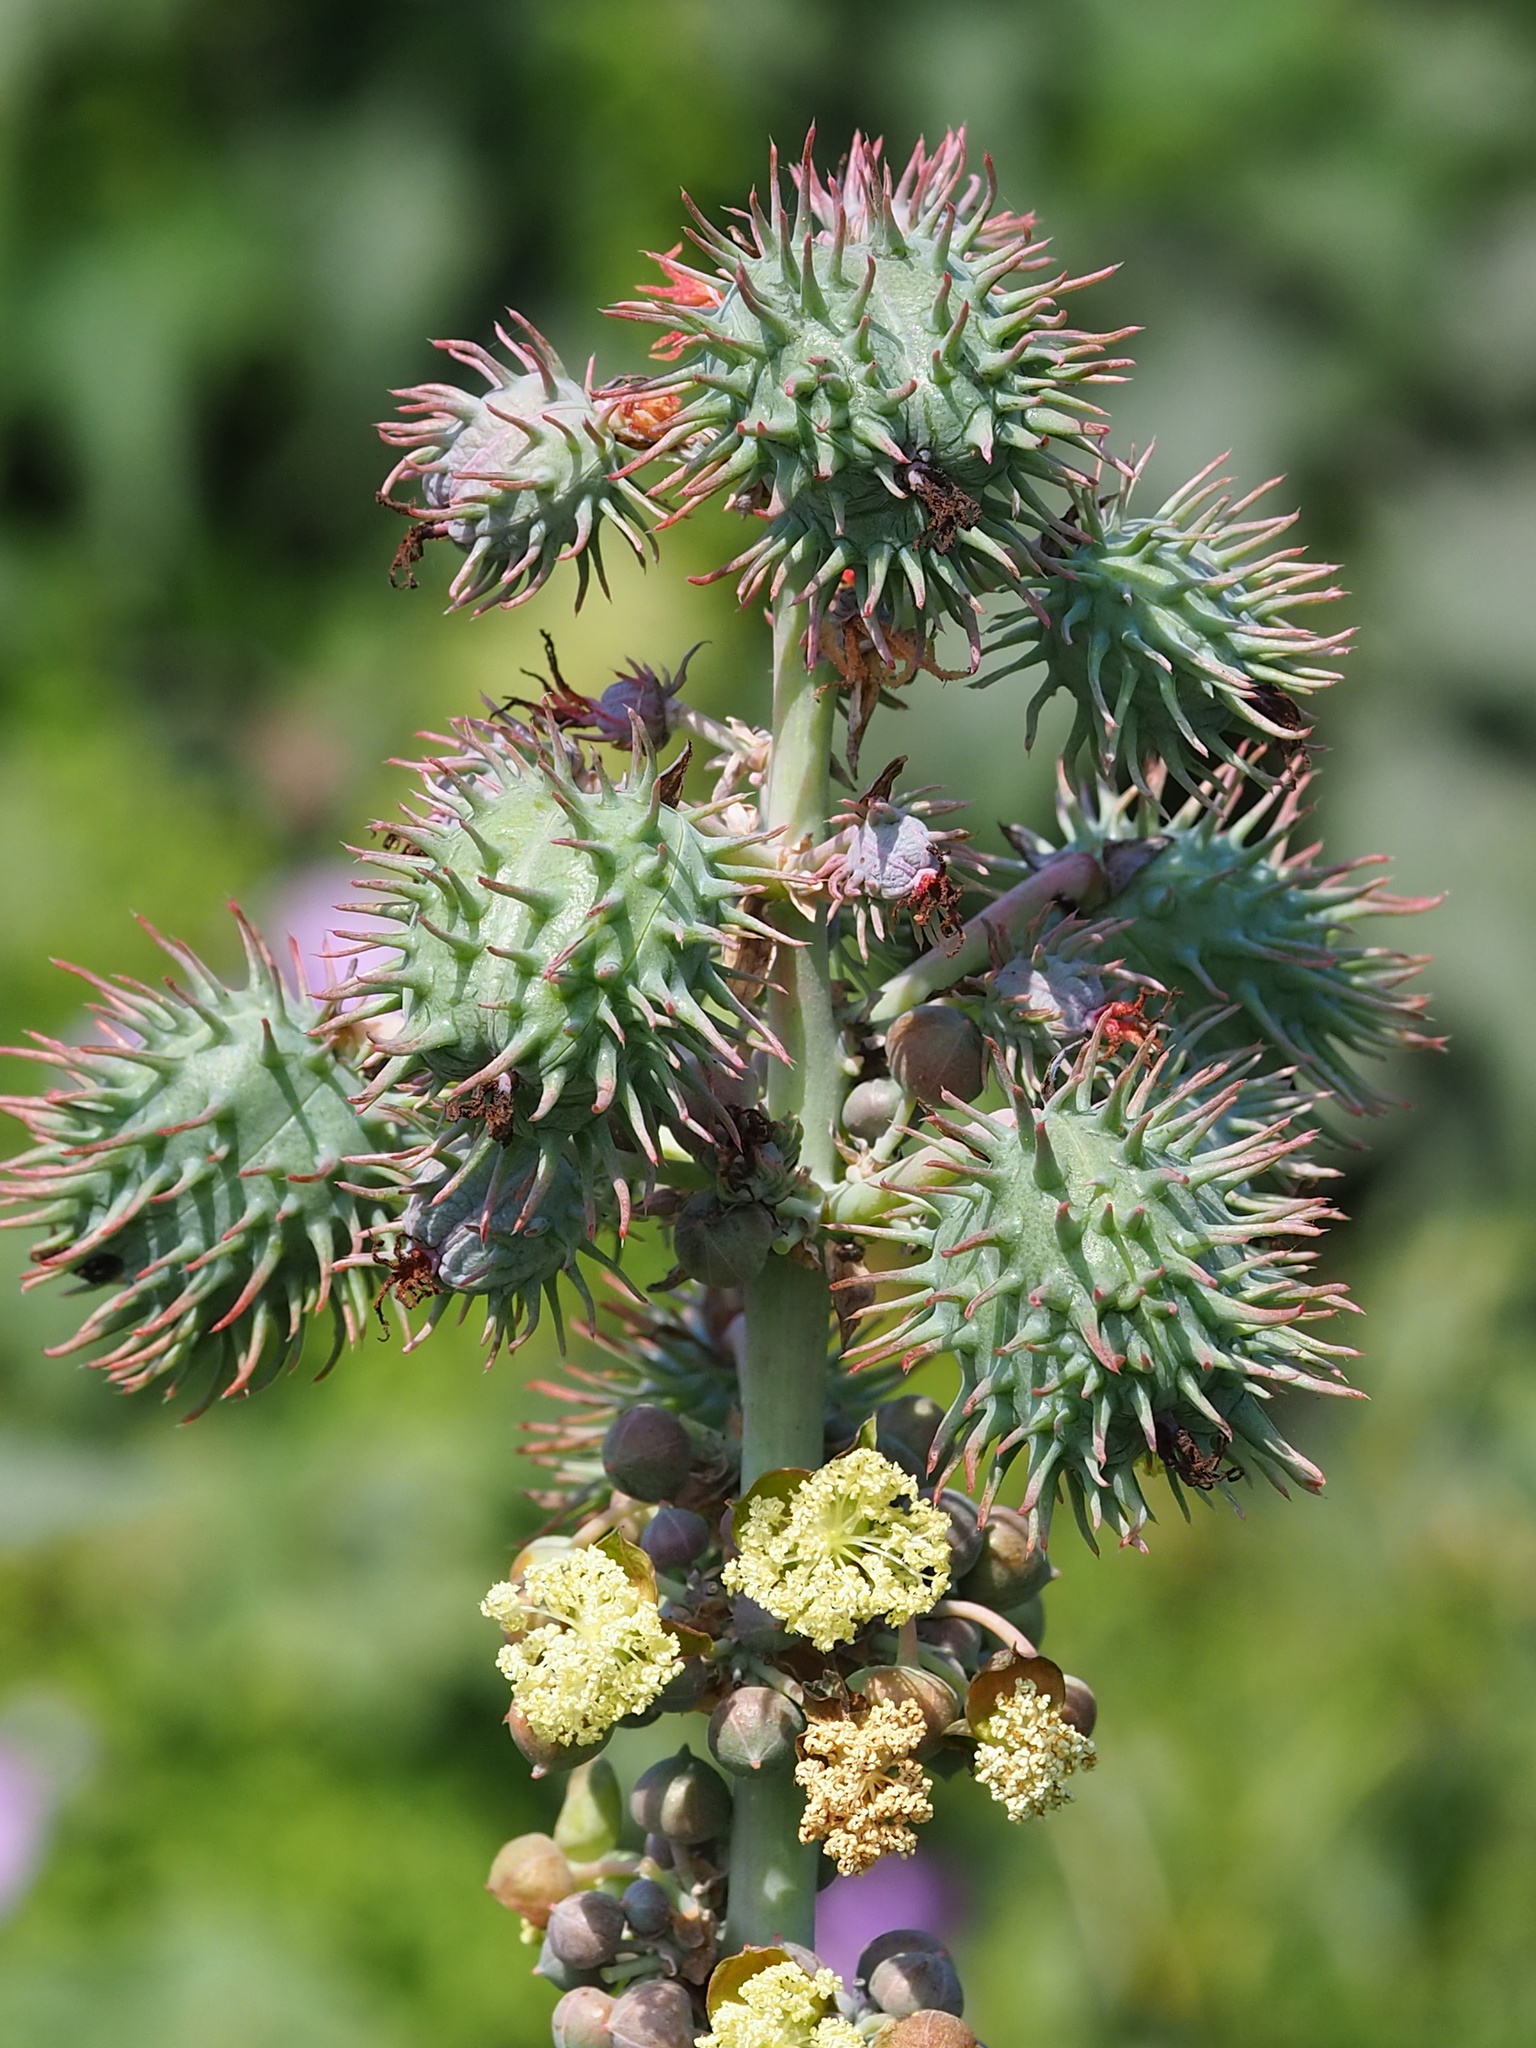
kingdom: Plantae
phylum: Tracheophyta
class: Magnoliopsida
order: Malpighiales
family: Euphorbiaceae
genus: Ricinus
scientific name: Ricinus communis
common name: Castor-oil-plant
